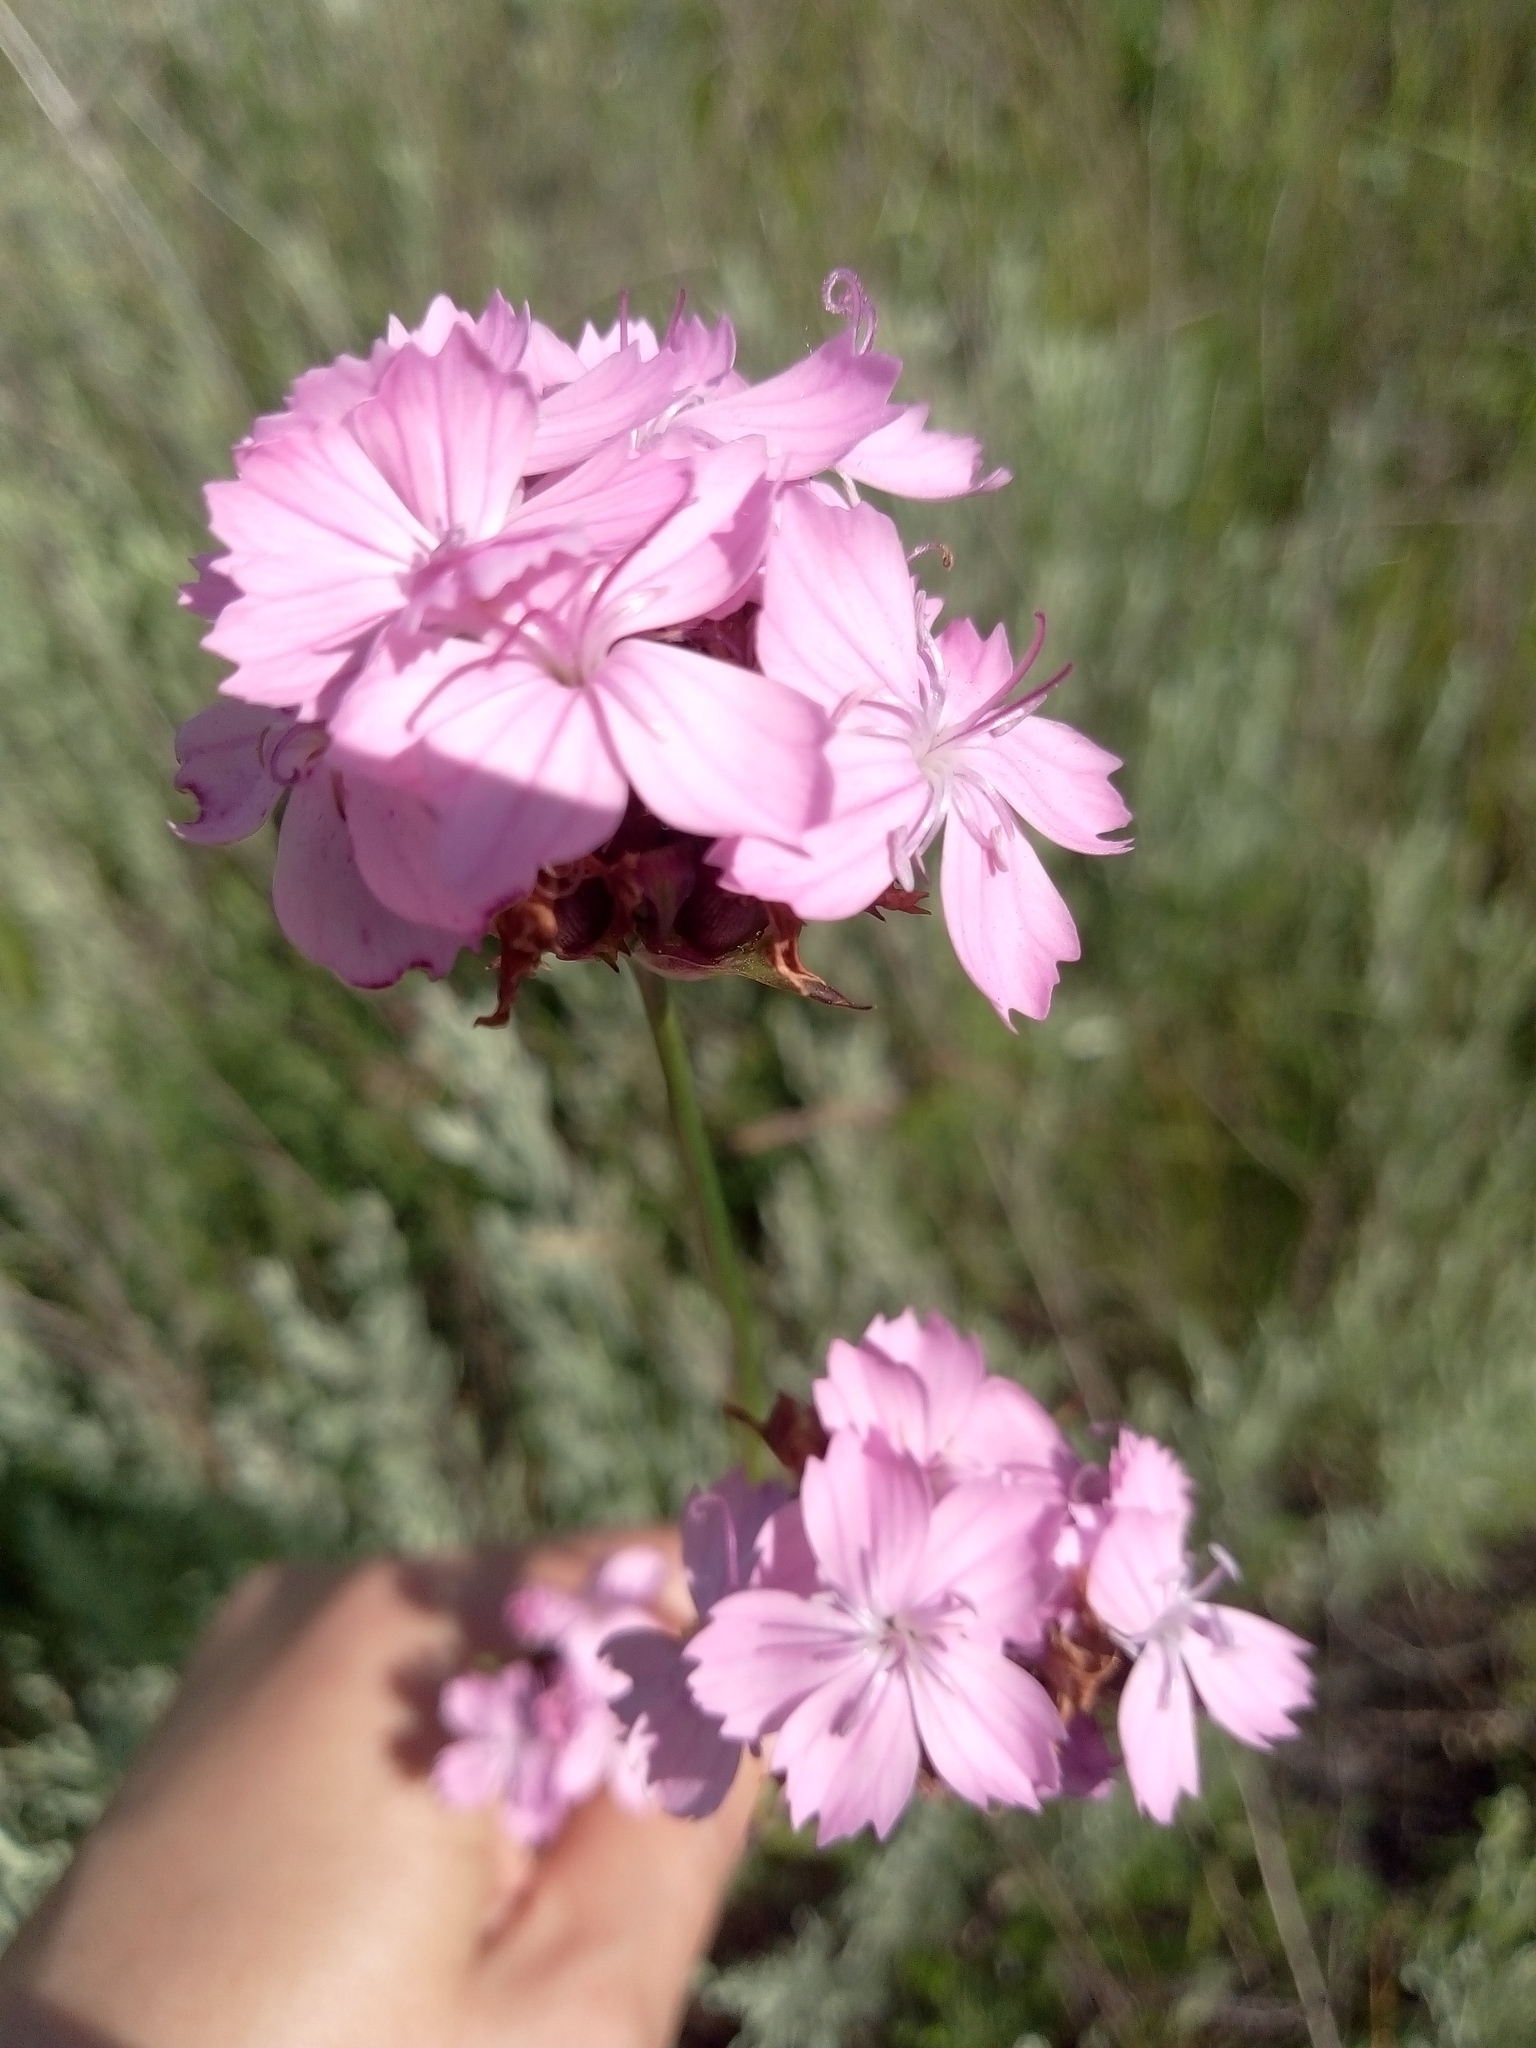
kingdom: Plantae
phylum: Tracheophyta
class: Magnoliopsida
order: Caryophyllales
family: Caryophyllaceae
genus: Dianthus
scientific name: Dianthus capitatus
